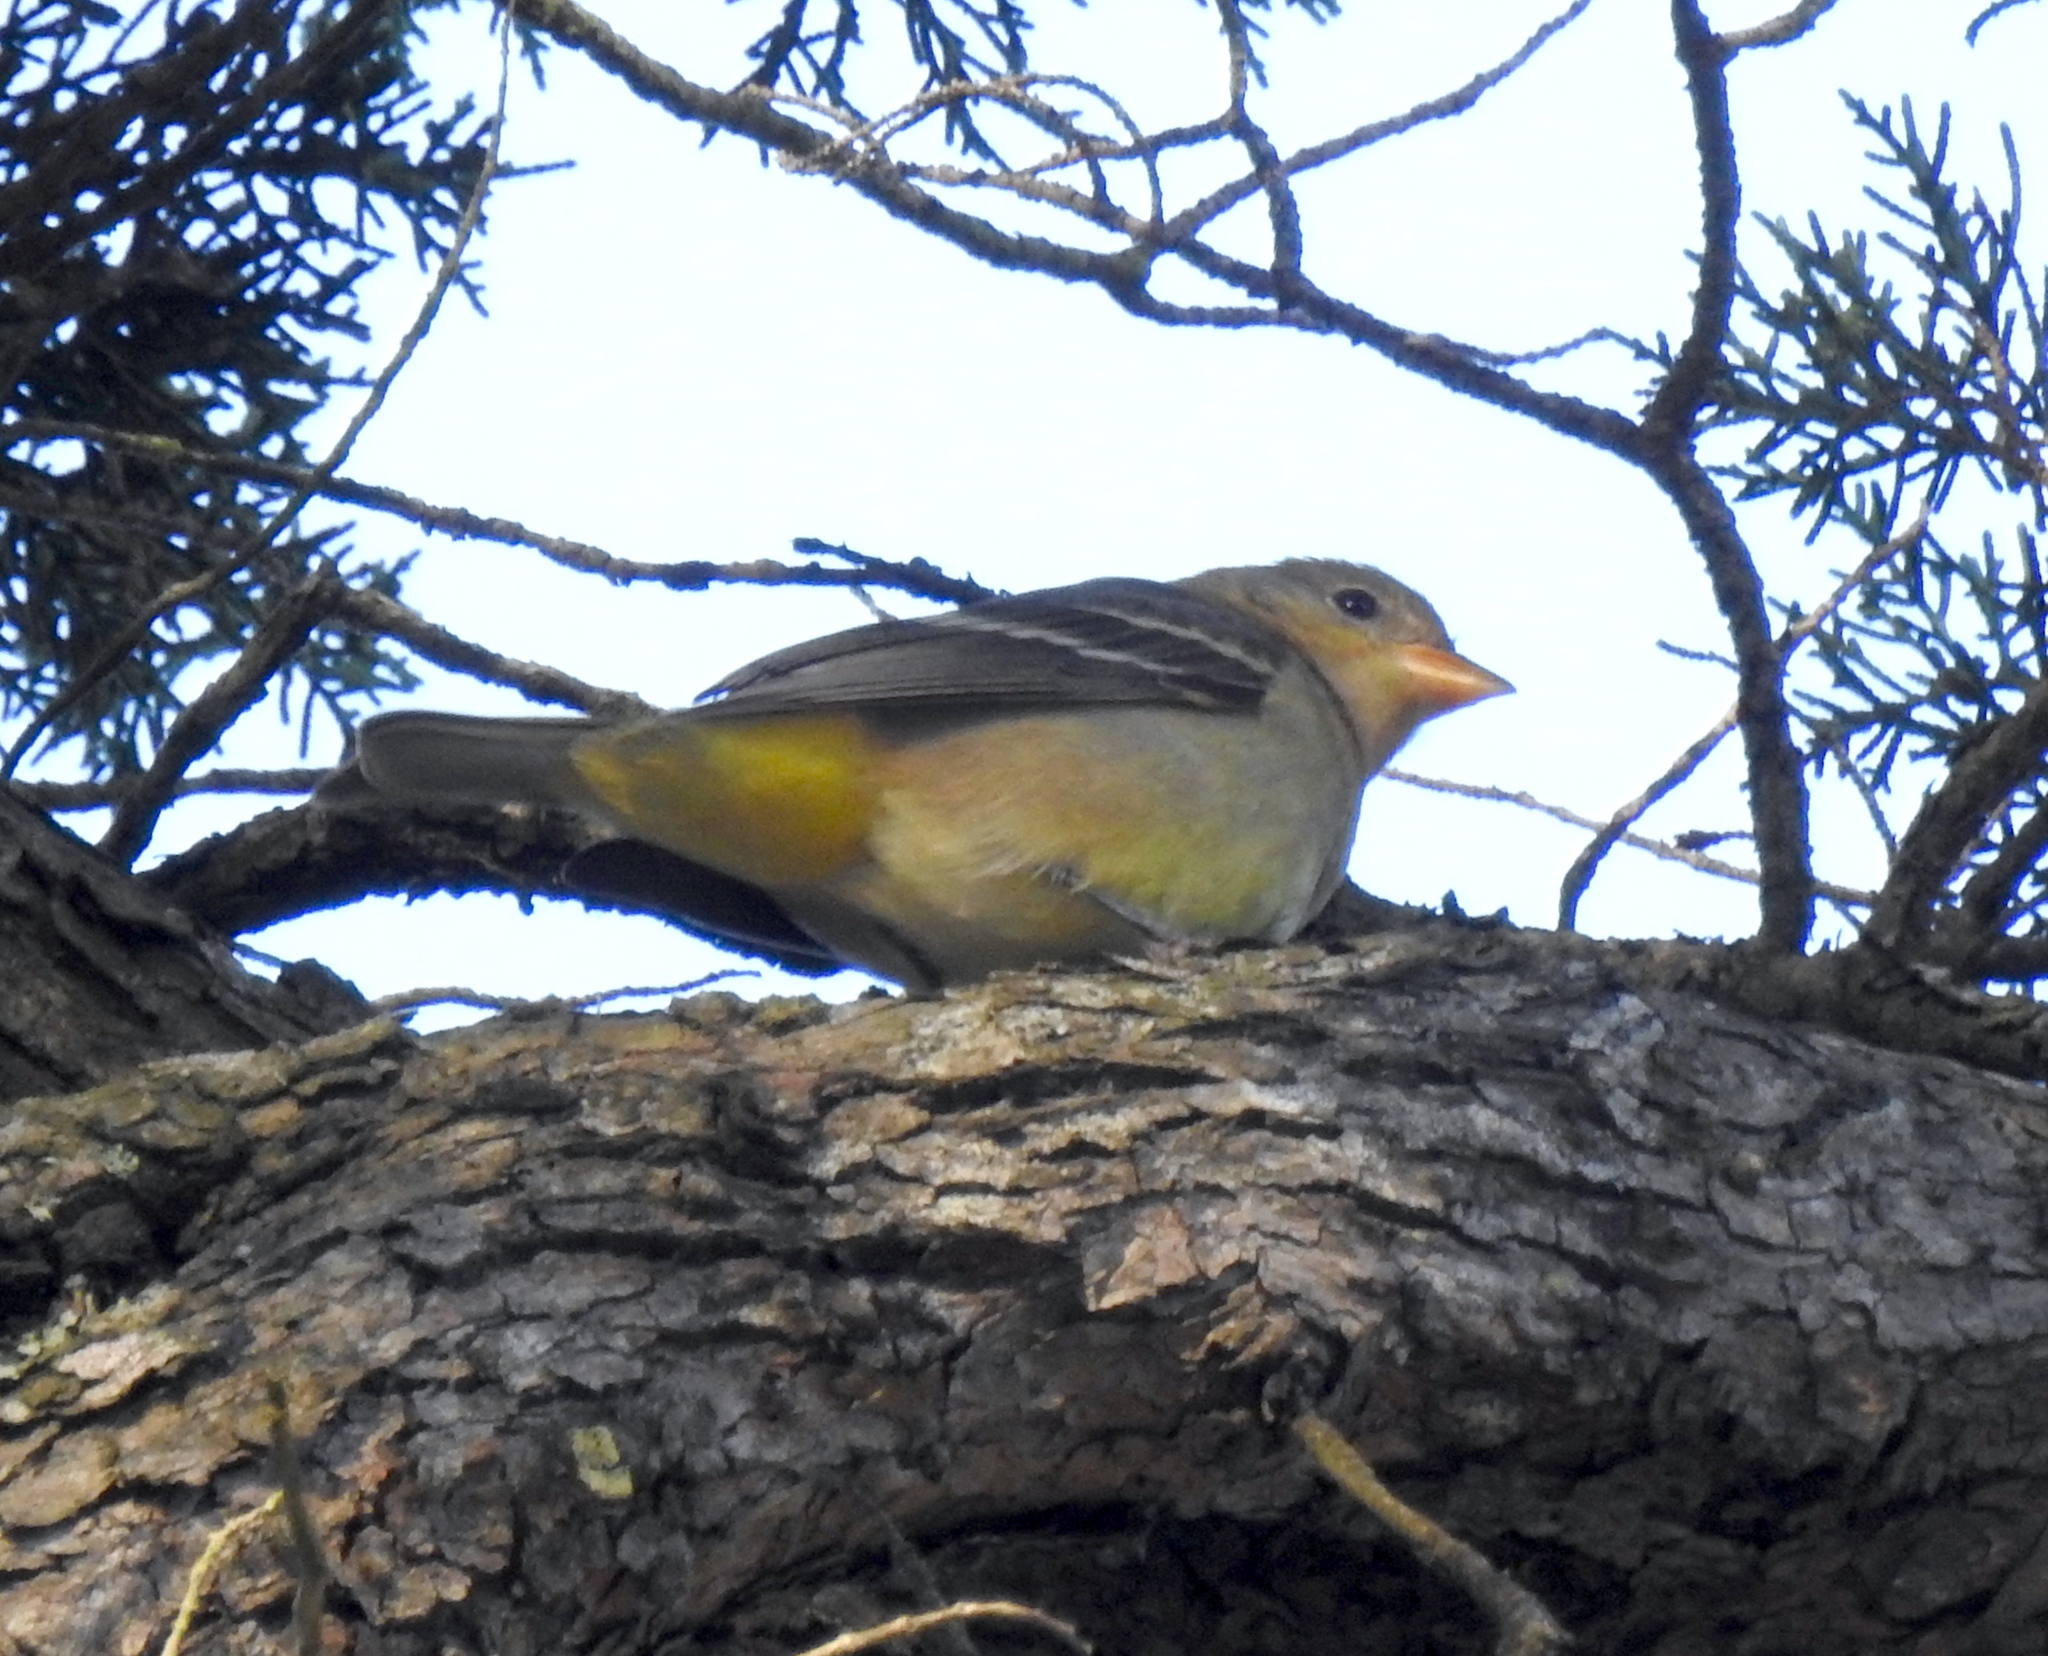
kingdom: Animalia
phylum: Chordata
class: Aves
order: Passeriformes
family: Cardinalidae
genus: Piranga
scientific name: Piranga ludoviciana
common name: Western tanager
